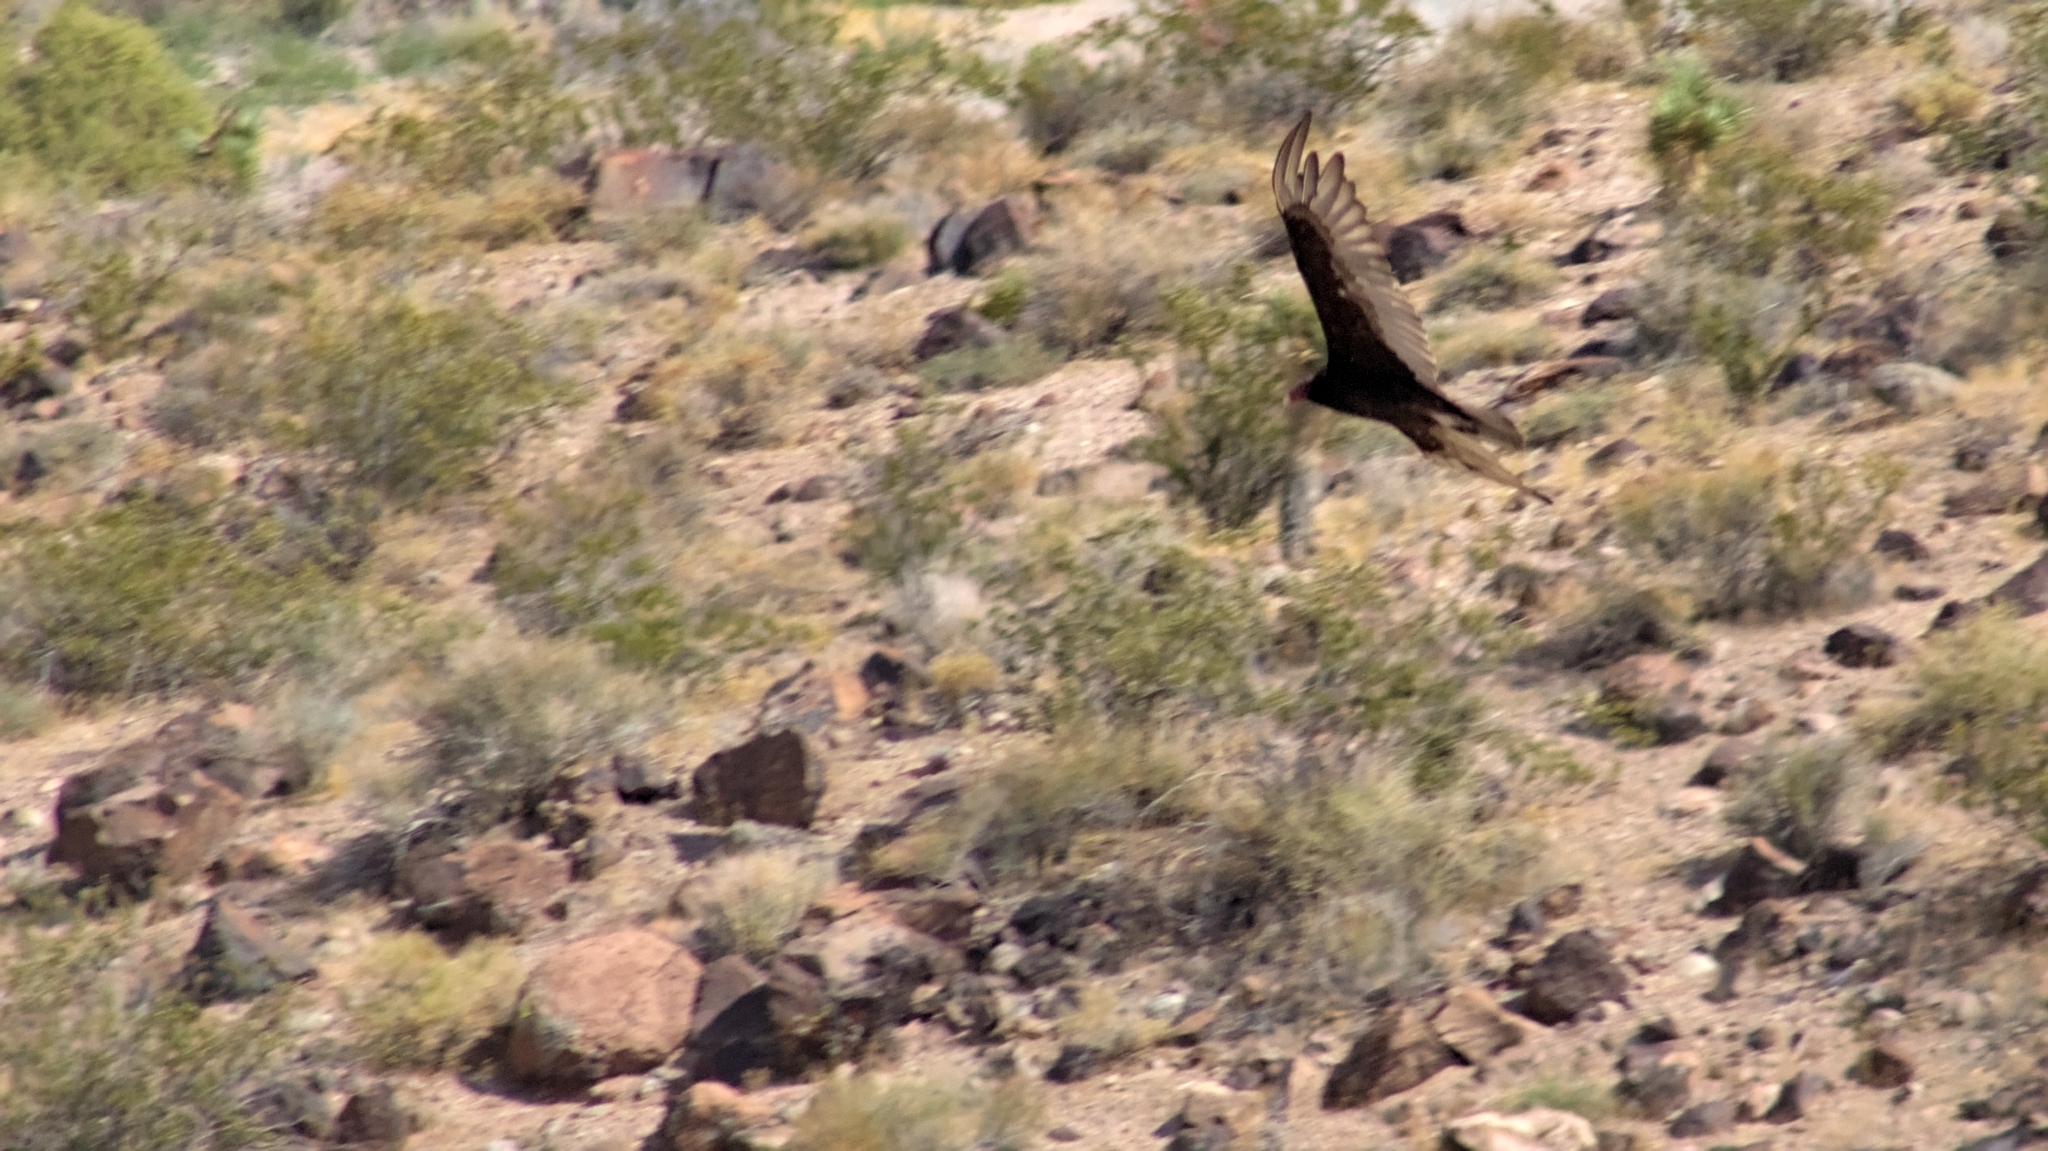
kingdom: Animalia
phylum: Chordata
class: Aves
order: Accipitriformes
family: Cathartidae
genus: Cathartes
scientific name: Cathartes aura
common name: Turkey vulture
